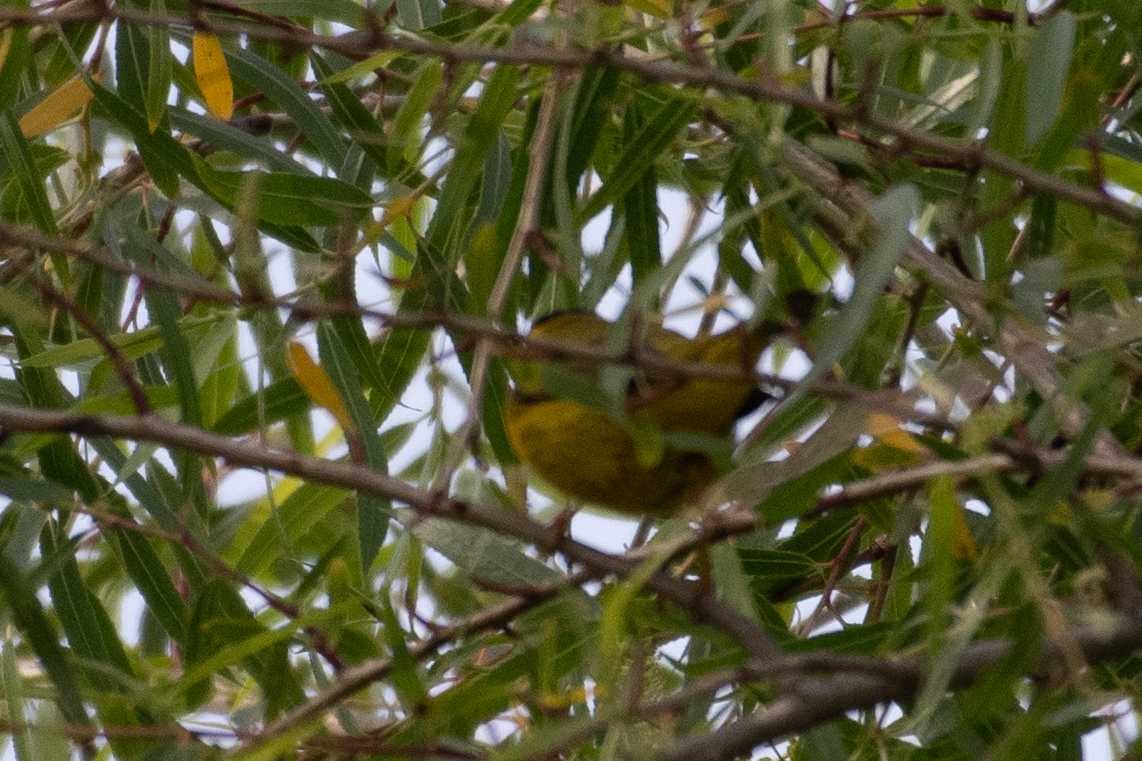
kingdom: Animalia
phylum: Chordata
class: Aves
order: Passeriformes
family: Parulidae
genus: Cardellina
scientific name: Cardellina pusilla
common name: Wilson's warbler
